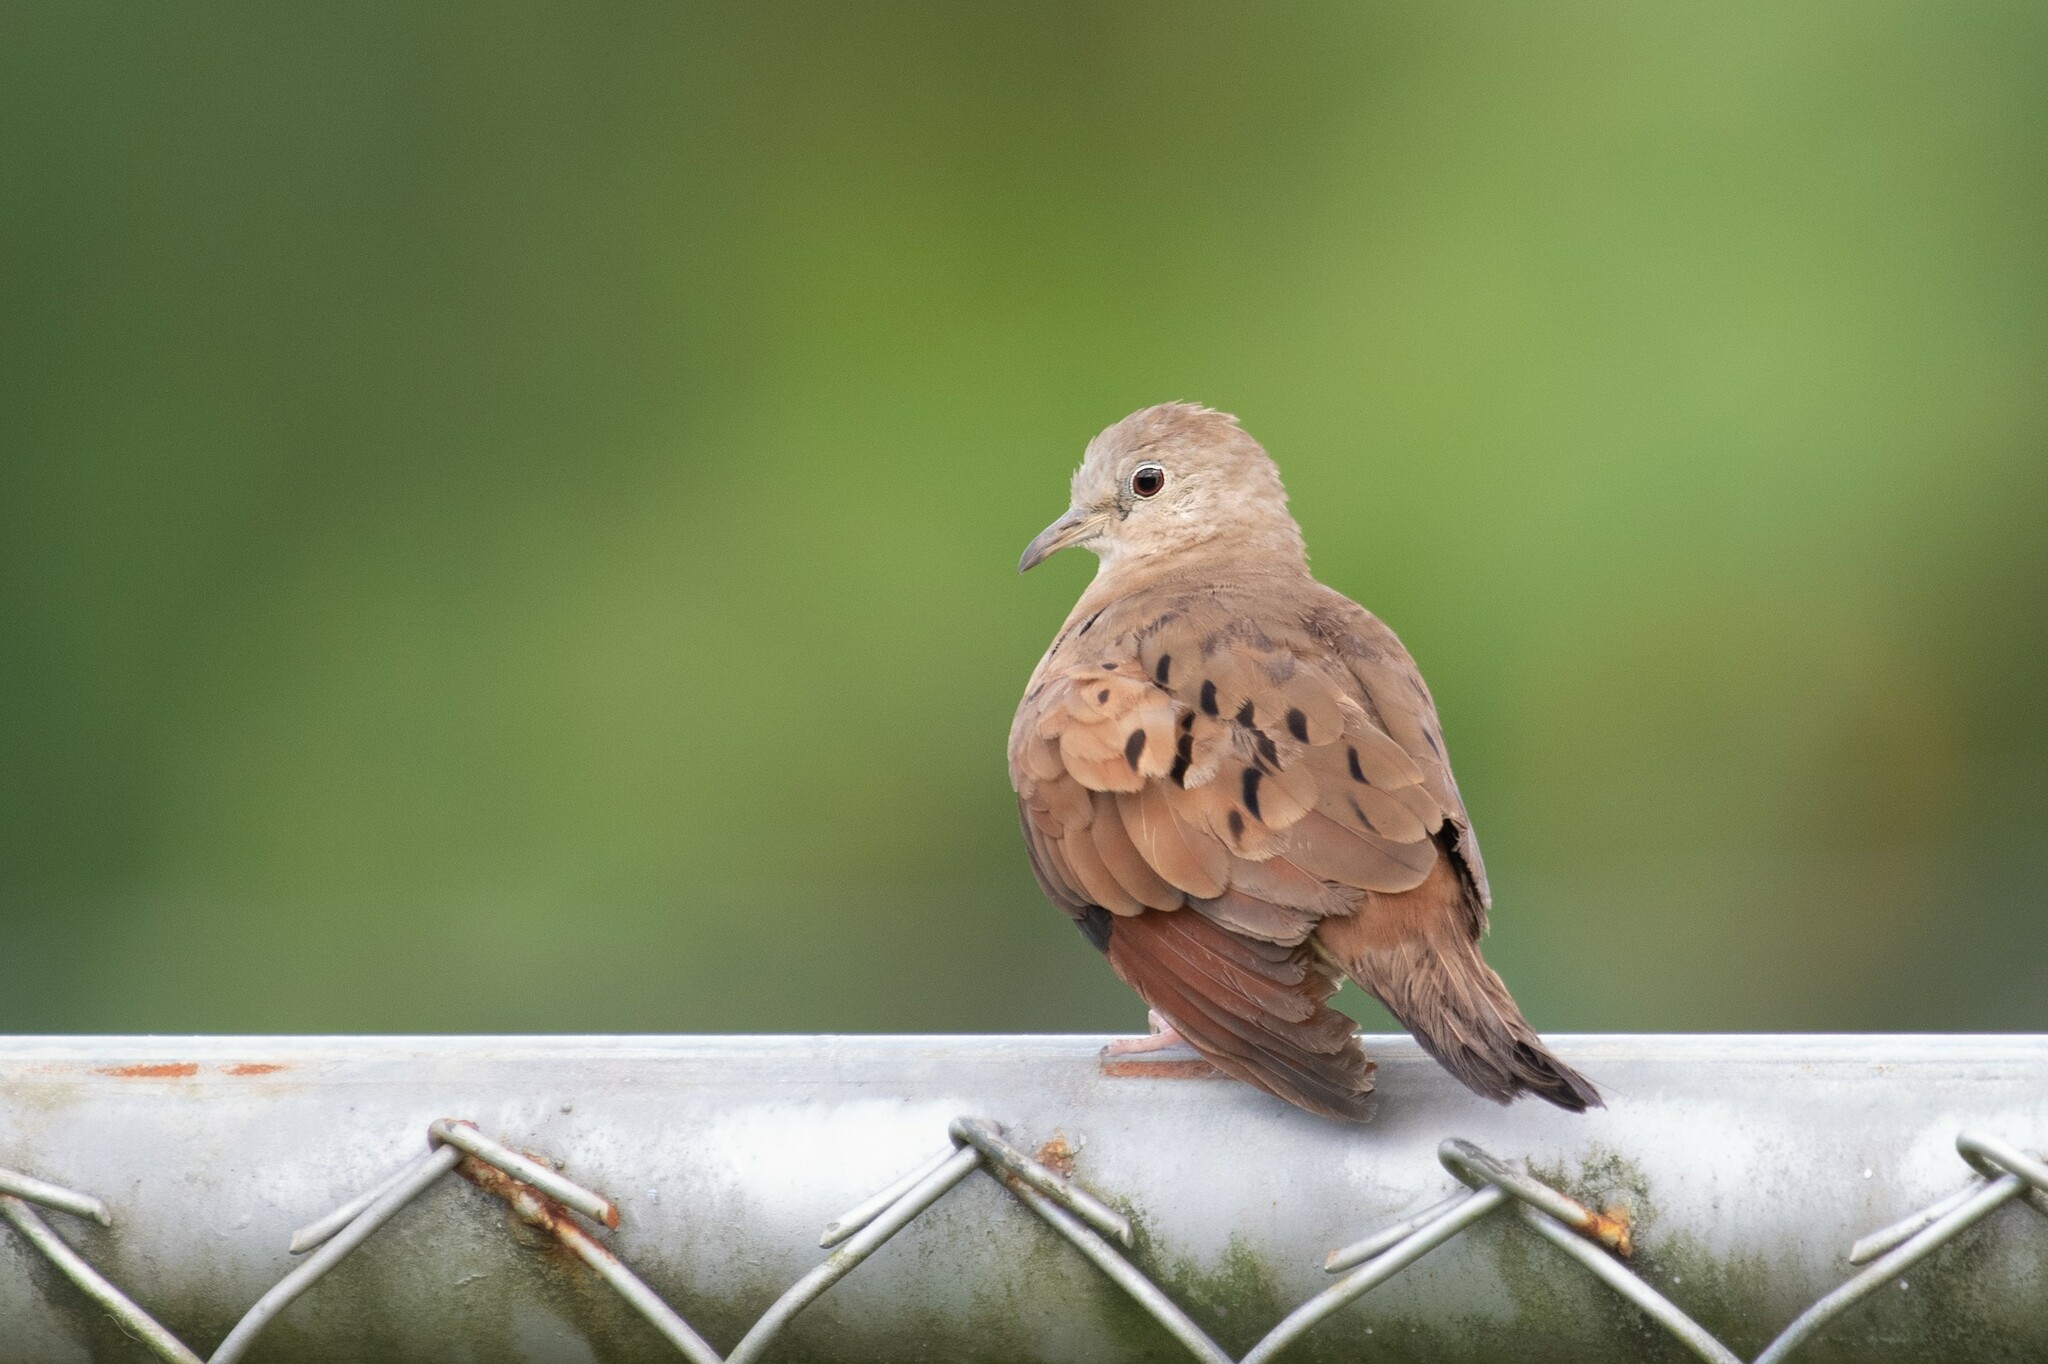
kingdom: Animalia
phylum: Chordata
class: Aves
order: Columbiformes
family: Columbidae
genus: Columbina
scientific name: Columbina talpacoti
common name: Ruddy ground dove
